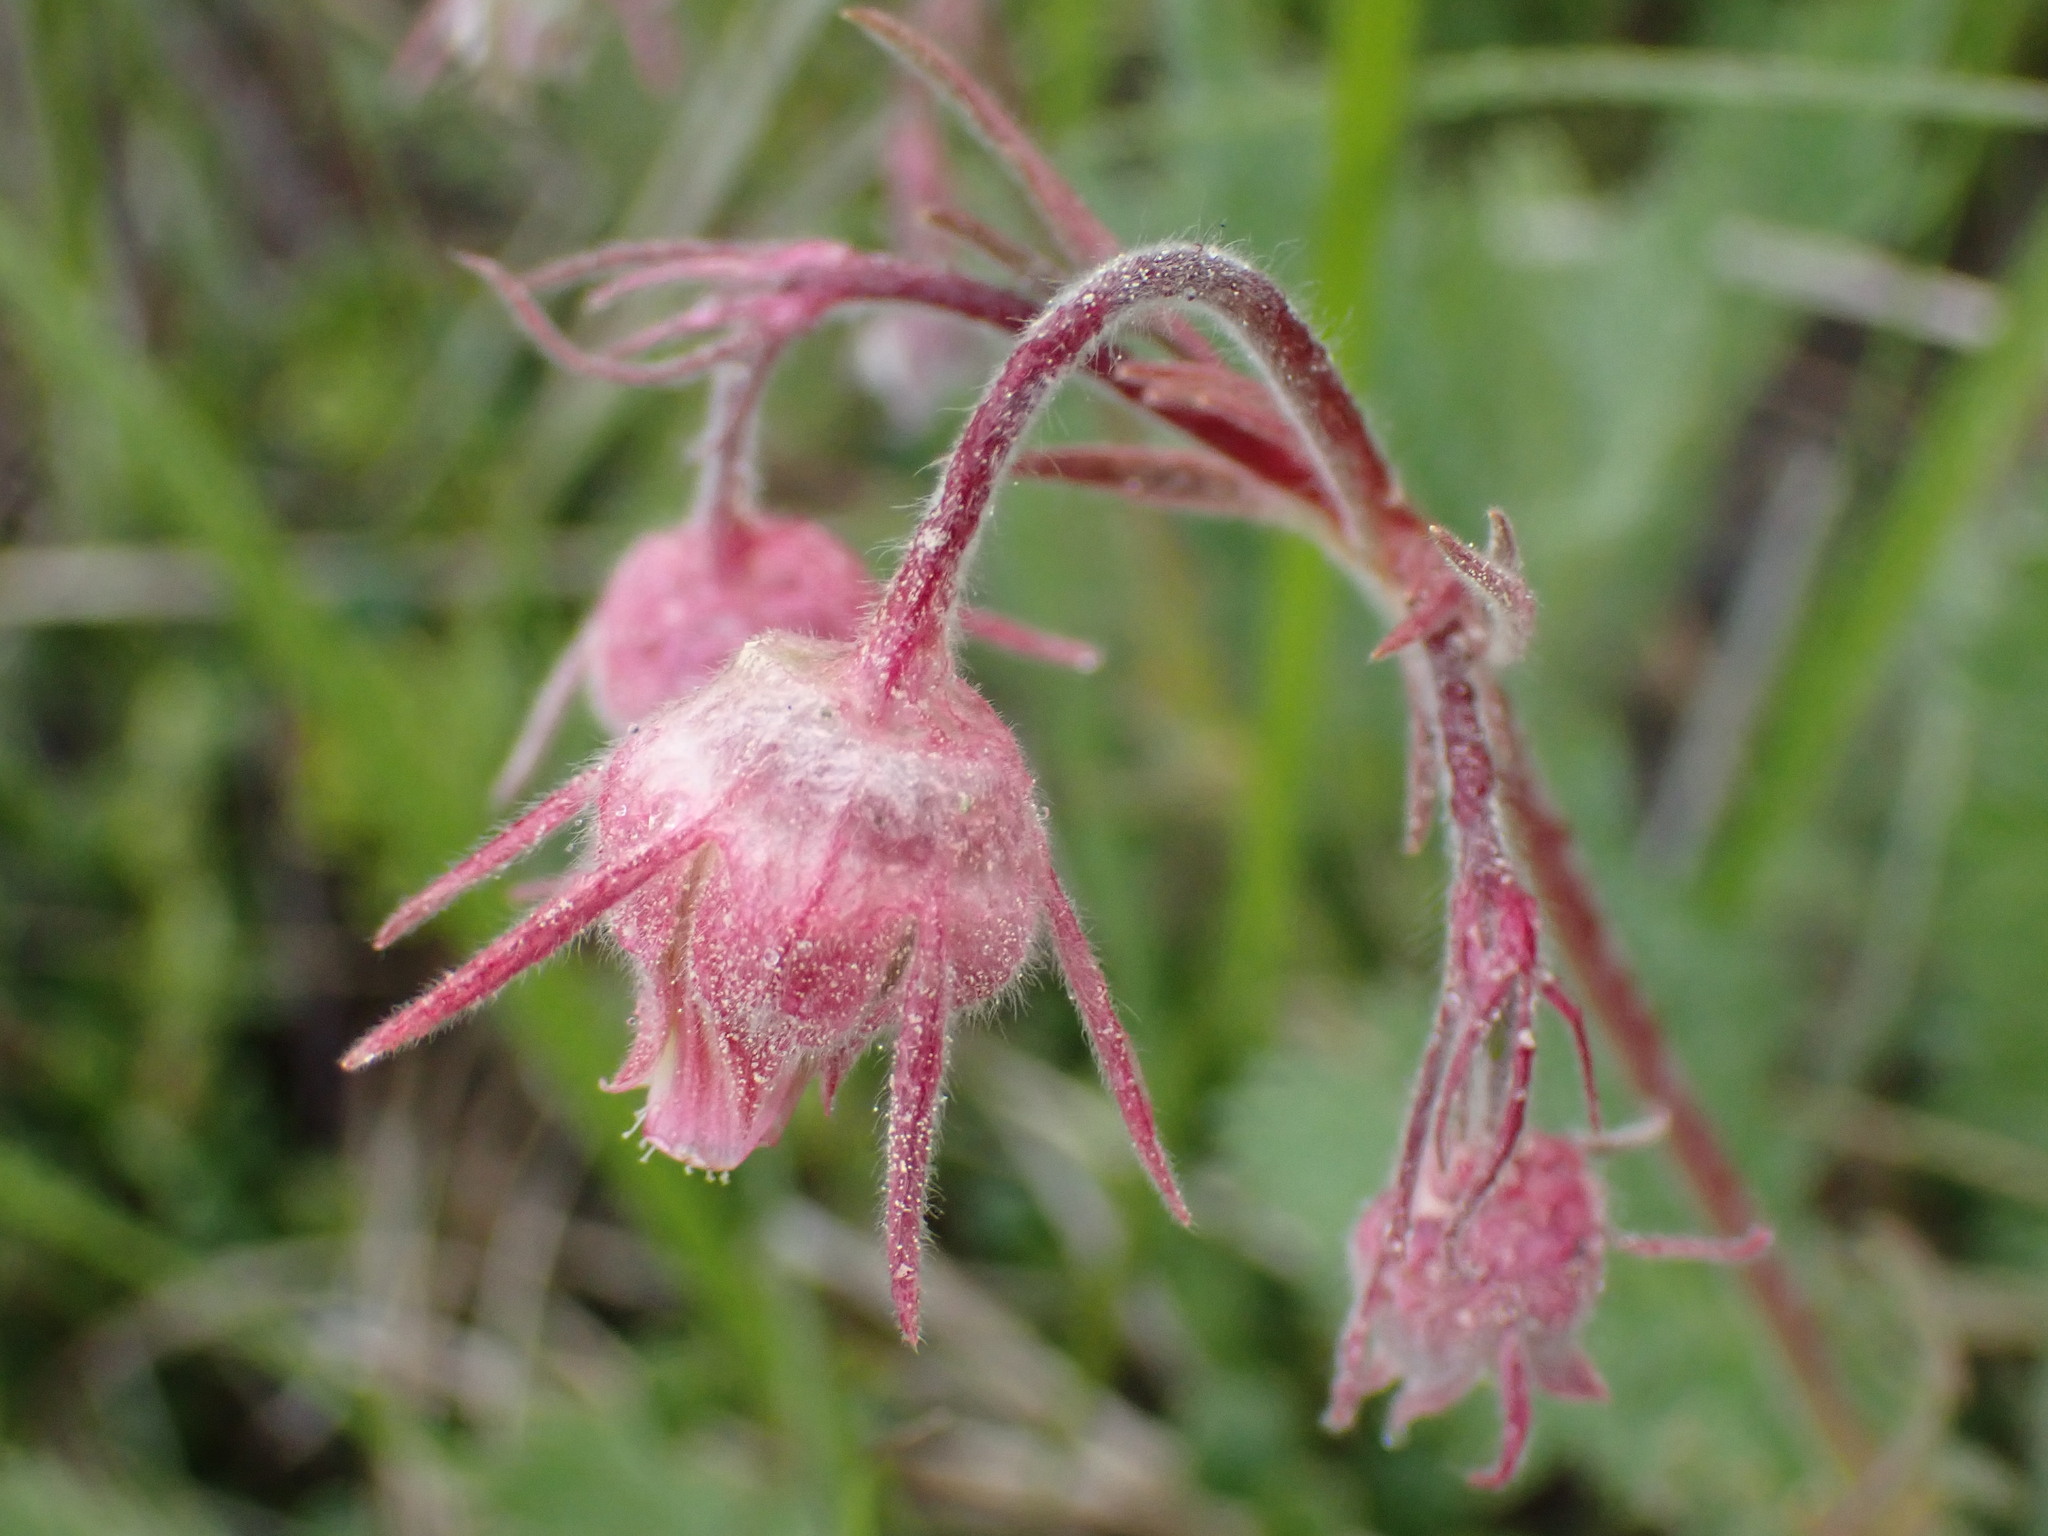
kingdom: Plantae
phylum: Tracheophyta
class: Magnoliopsida
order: Rosales
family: Rosaceae
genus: Geum
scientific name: Geum triflorum
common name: Old man's whiskers
